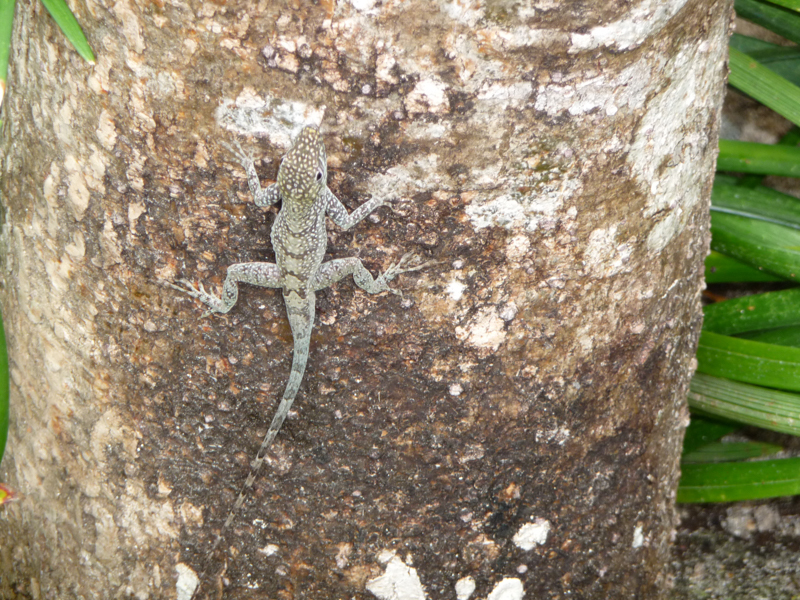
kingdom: Animalia
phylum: Chordata
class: Squamata
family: Dactyloidae
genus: Anolis
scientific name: Anolis conspersus
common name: Grand cayman anole
